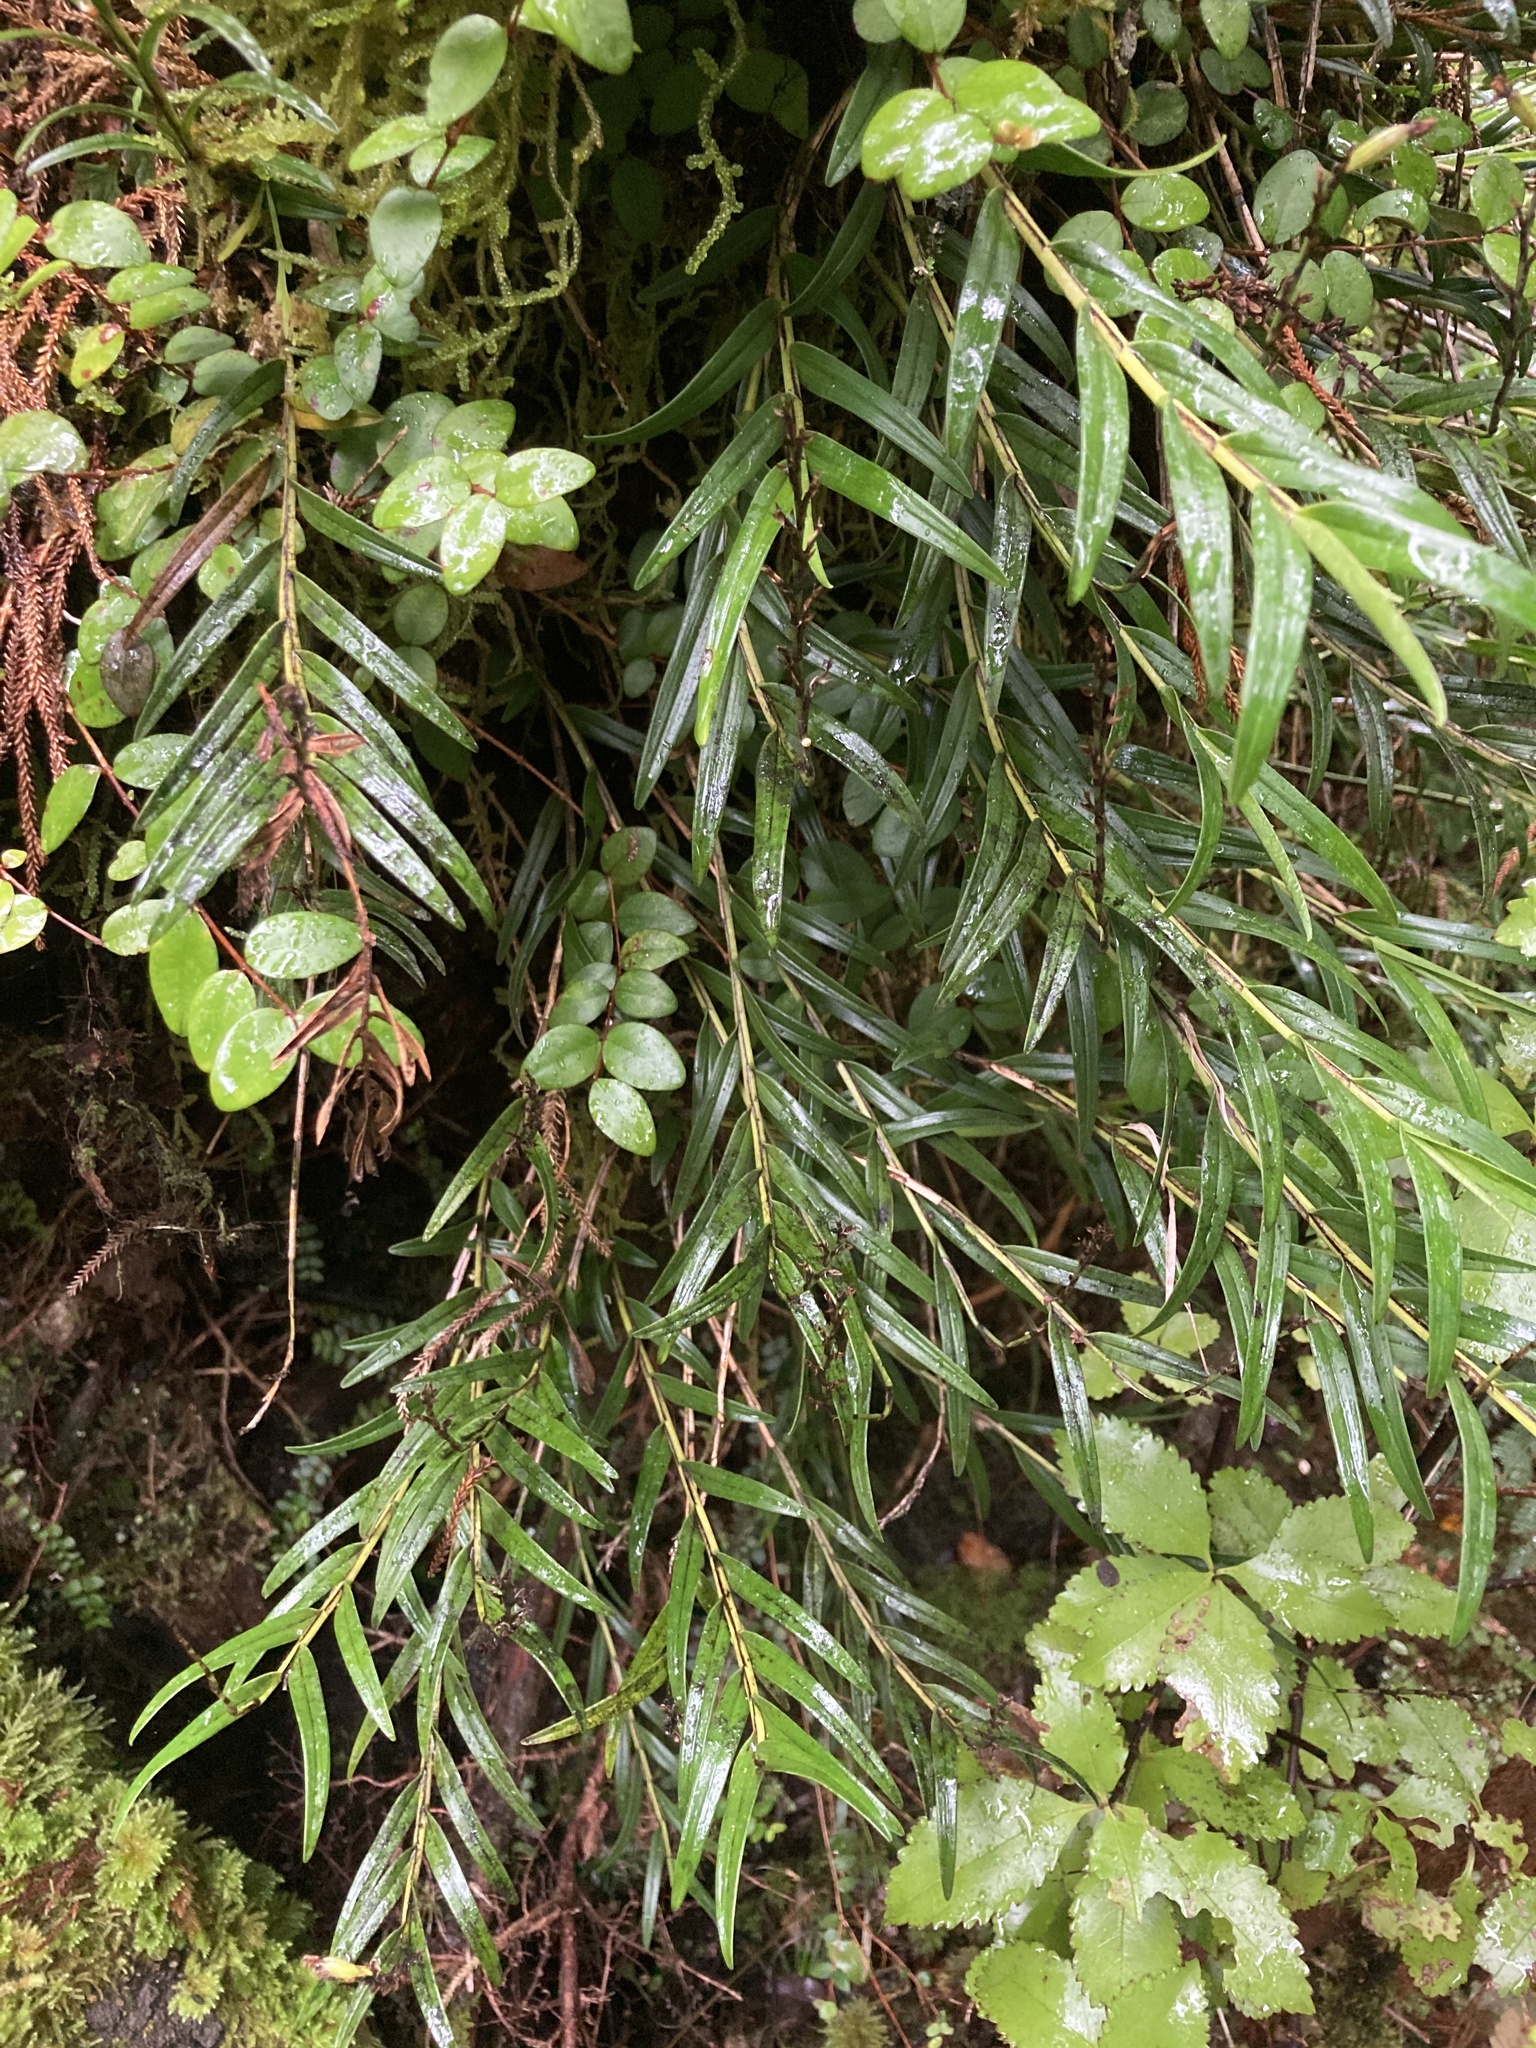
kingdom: Plantae
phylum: Tracheophyta
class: Liliopsida
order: Asparagales
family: Orchidaceae
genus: Earina
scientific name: Earina autumnalis
